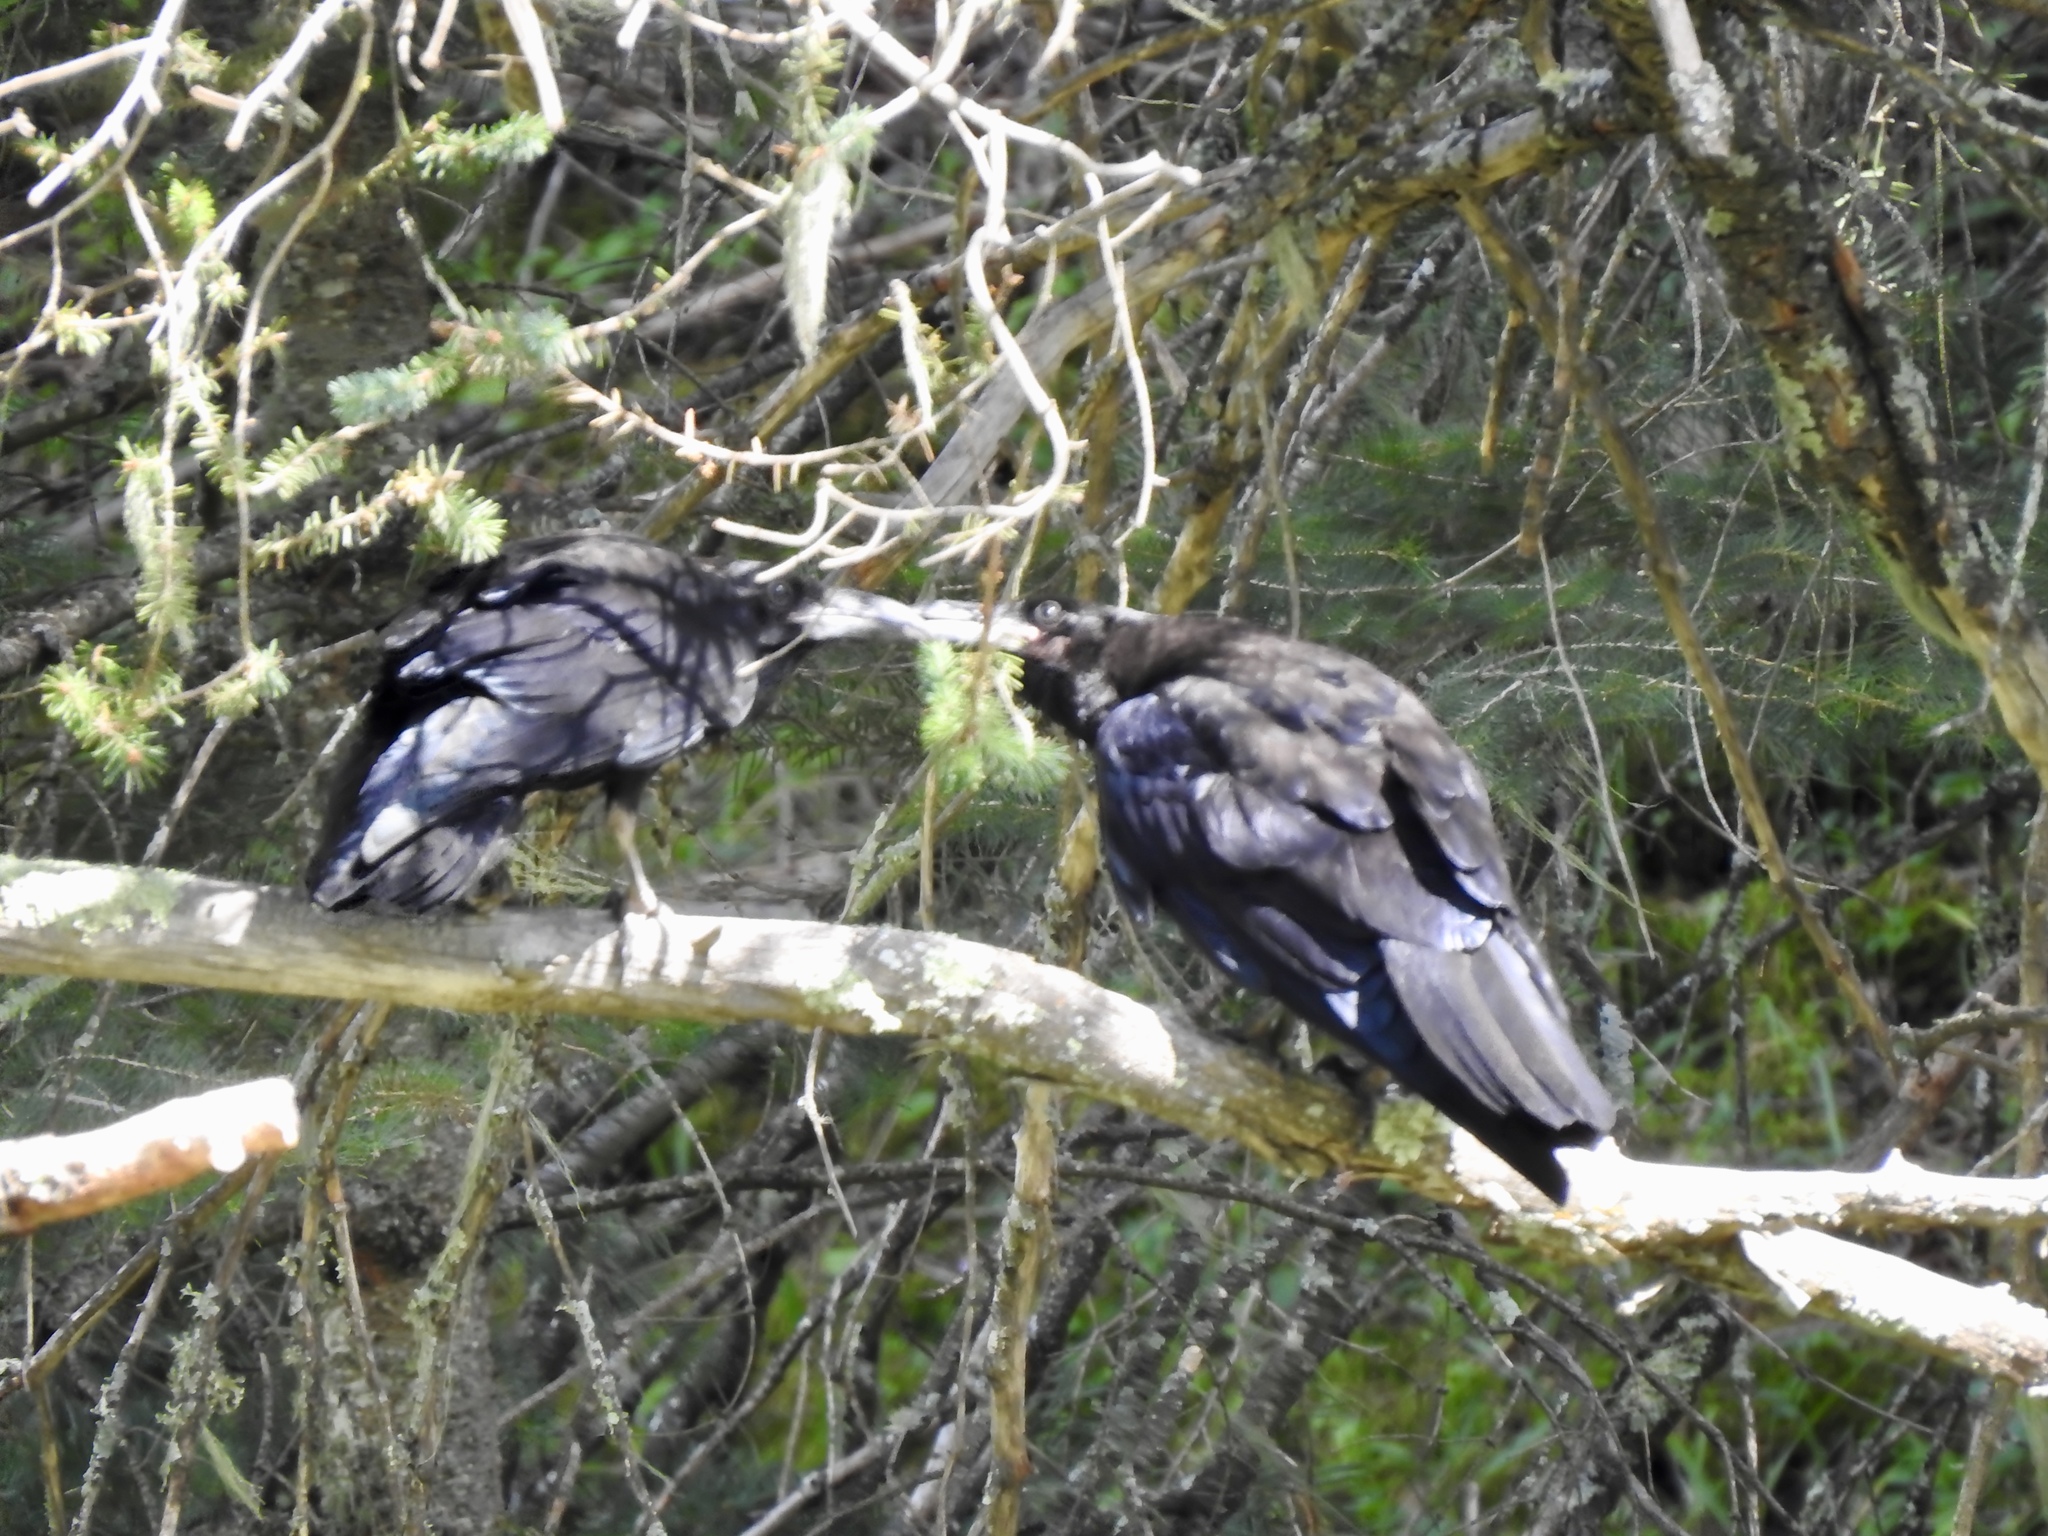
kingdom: Animalia
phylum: Chordata
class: Aves
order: Passeriformes
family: Corvidae
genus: Corvus
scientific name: Corvus corax
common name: Common raven
